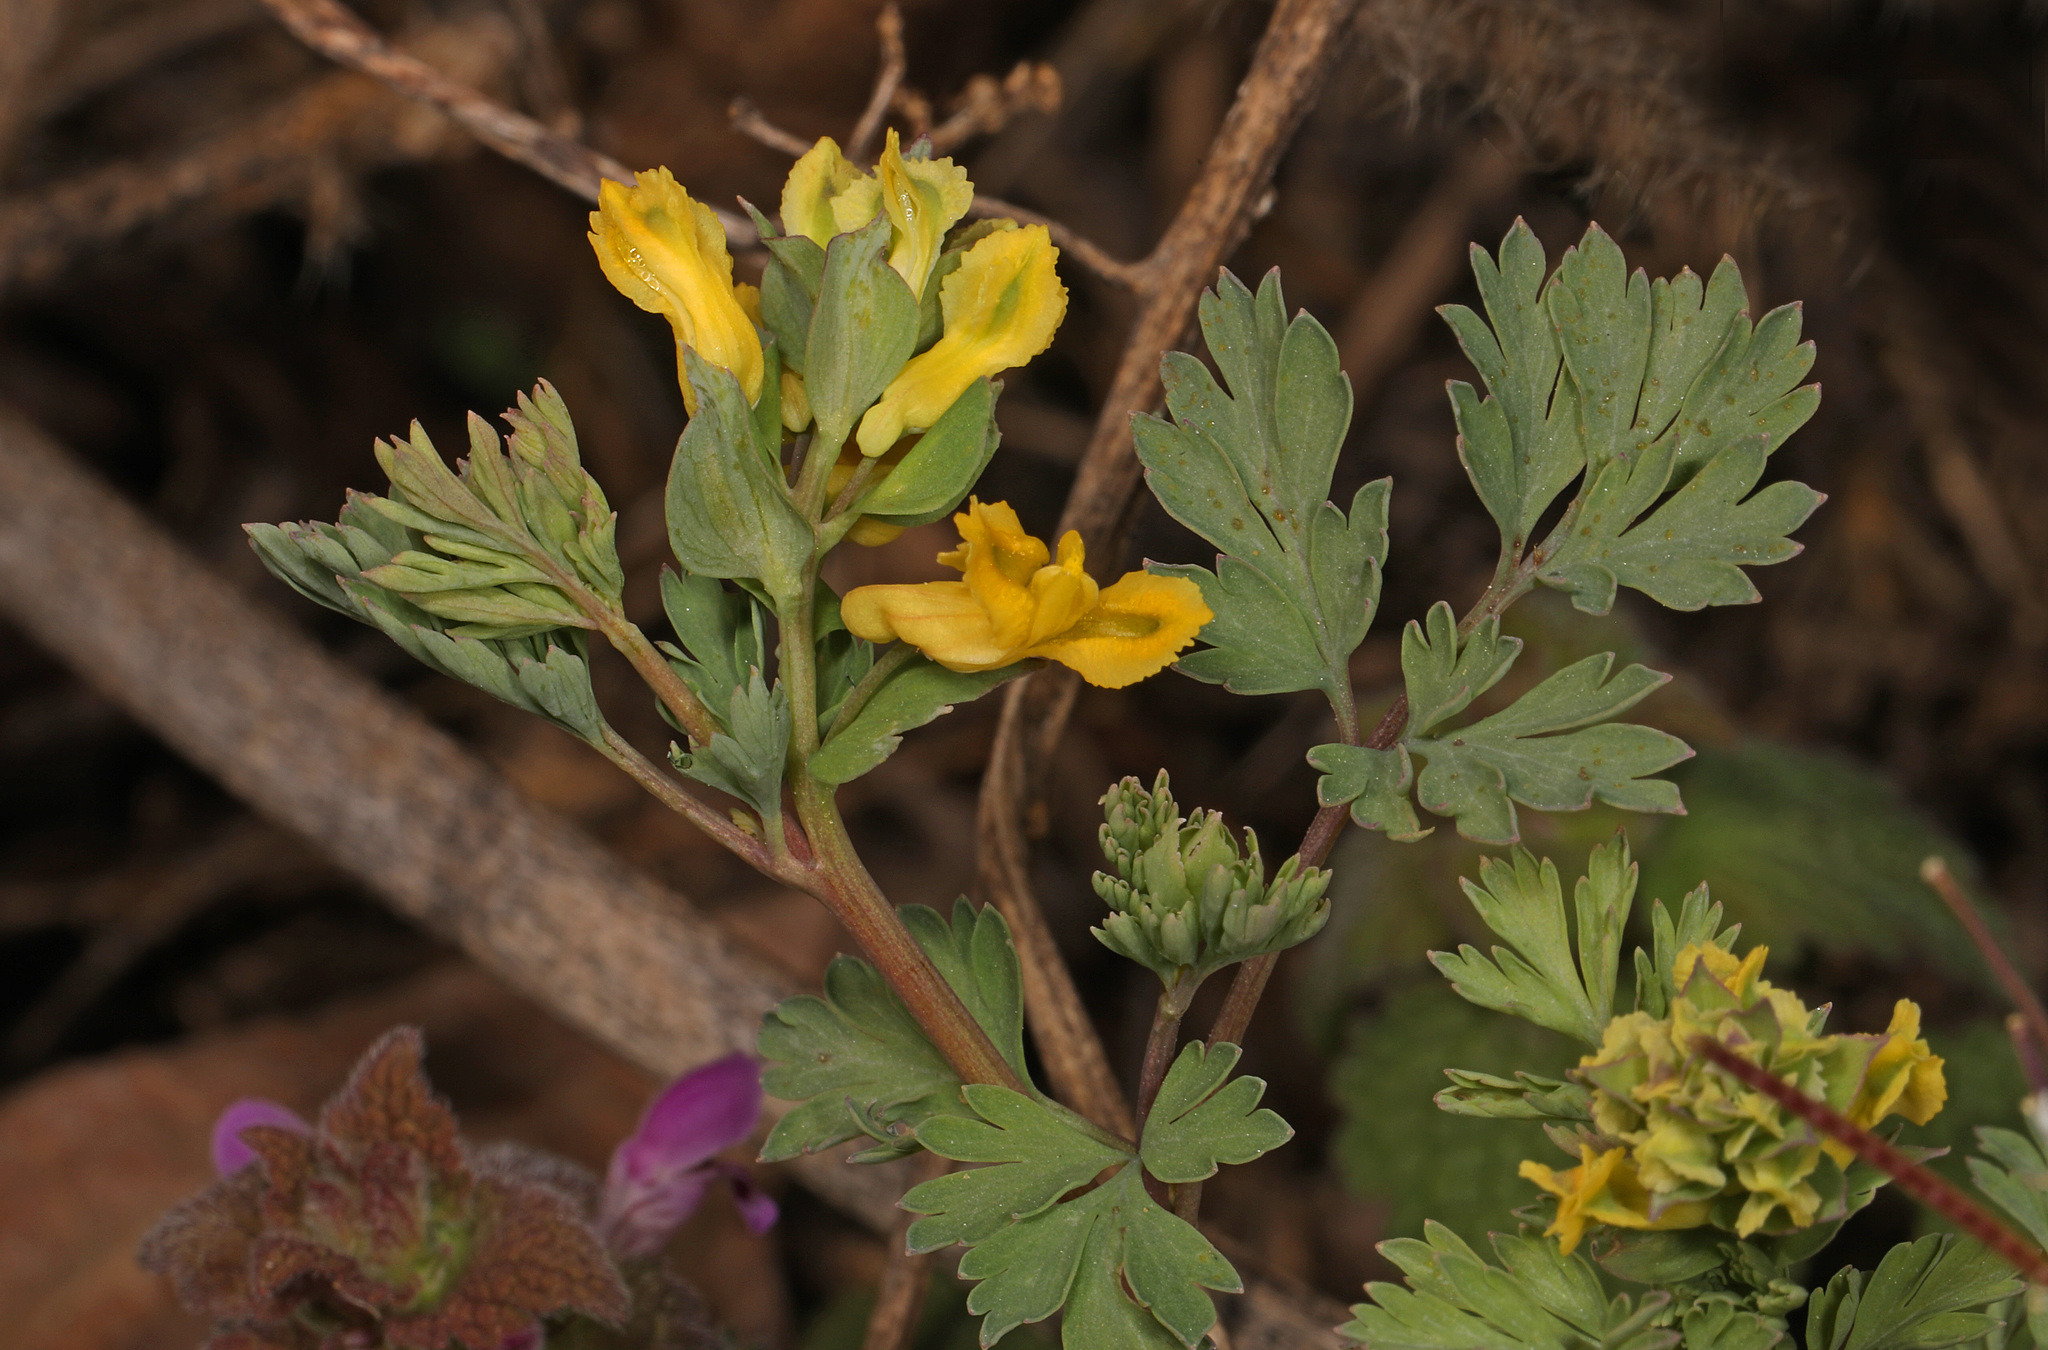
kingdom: Plantae
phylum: Tracheophyta
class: Magnoliopsida
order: Ranunculales
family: Papaveraceae
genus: Corydalis
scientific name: Corydalis flavula
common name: Yellow corydalis
